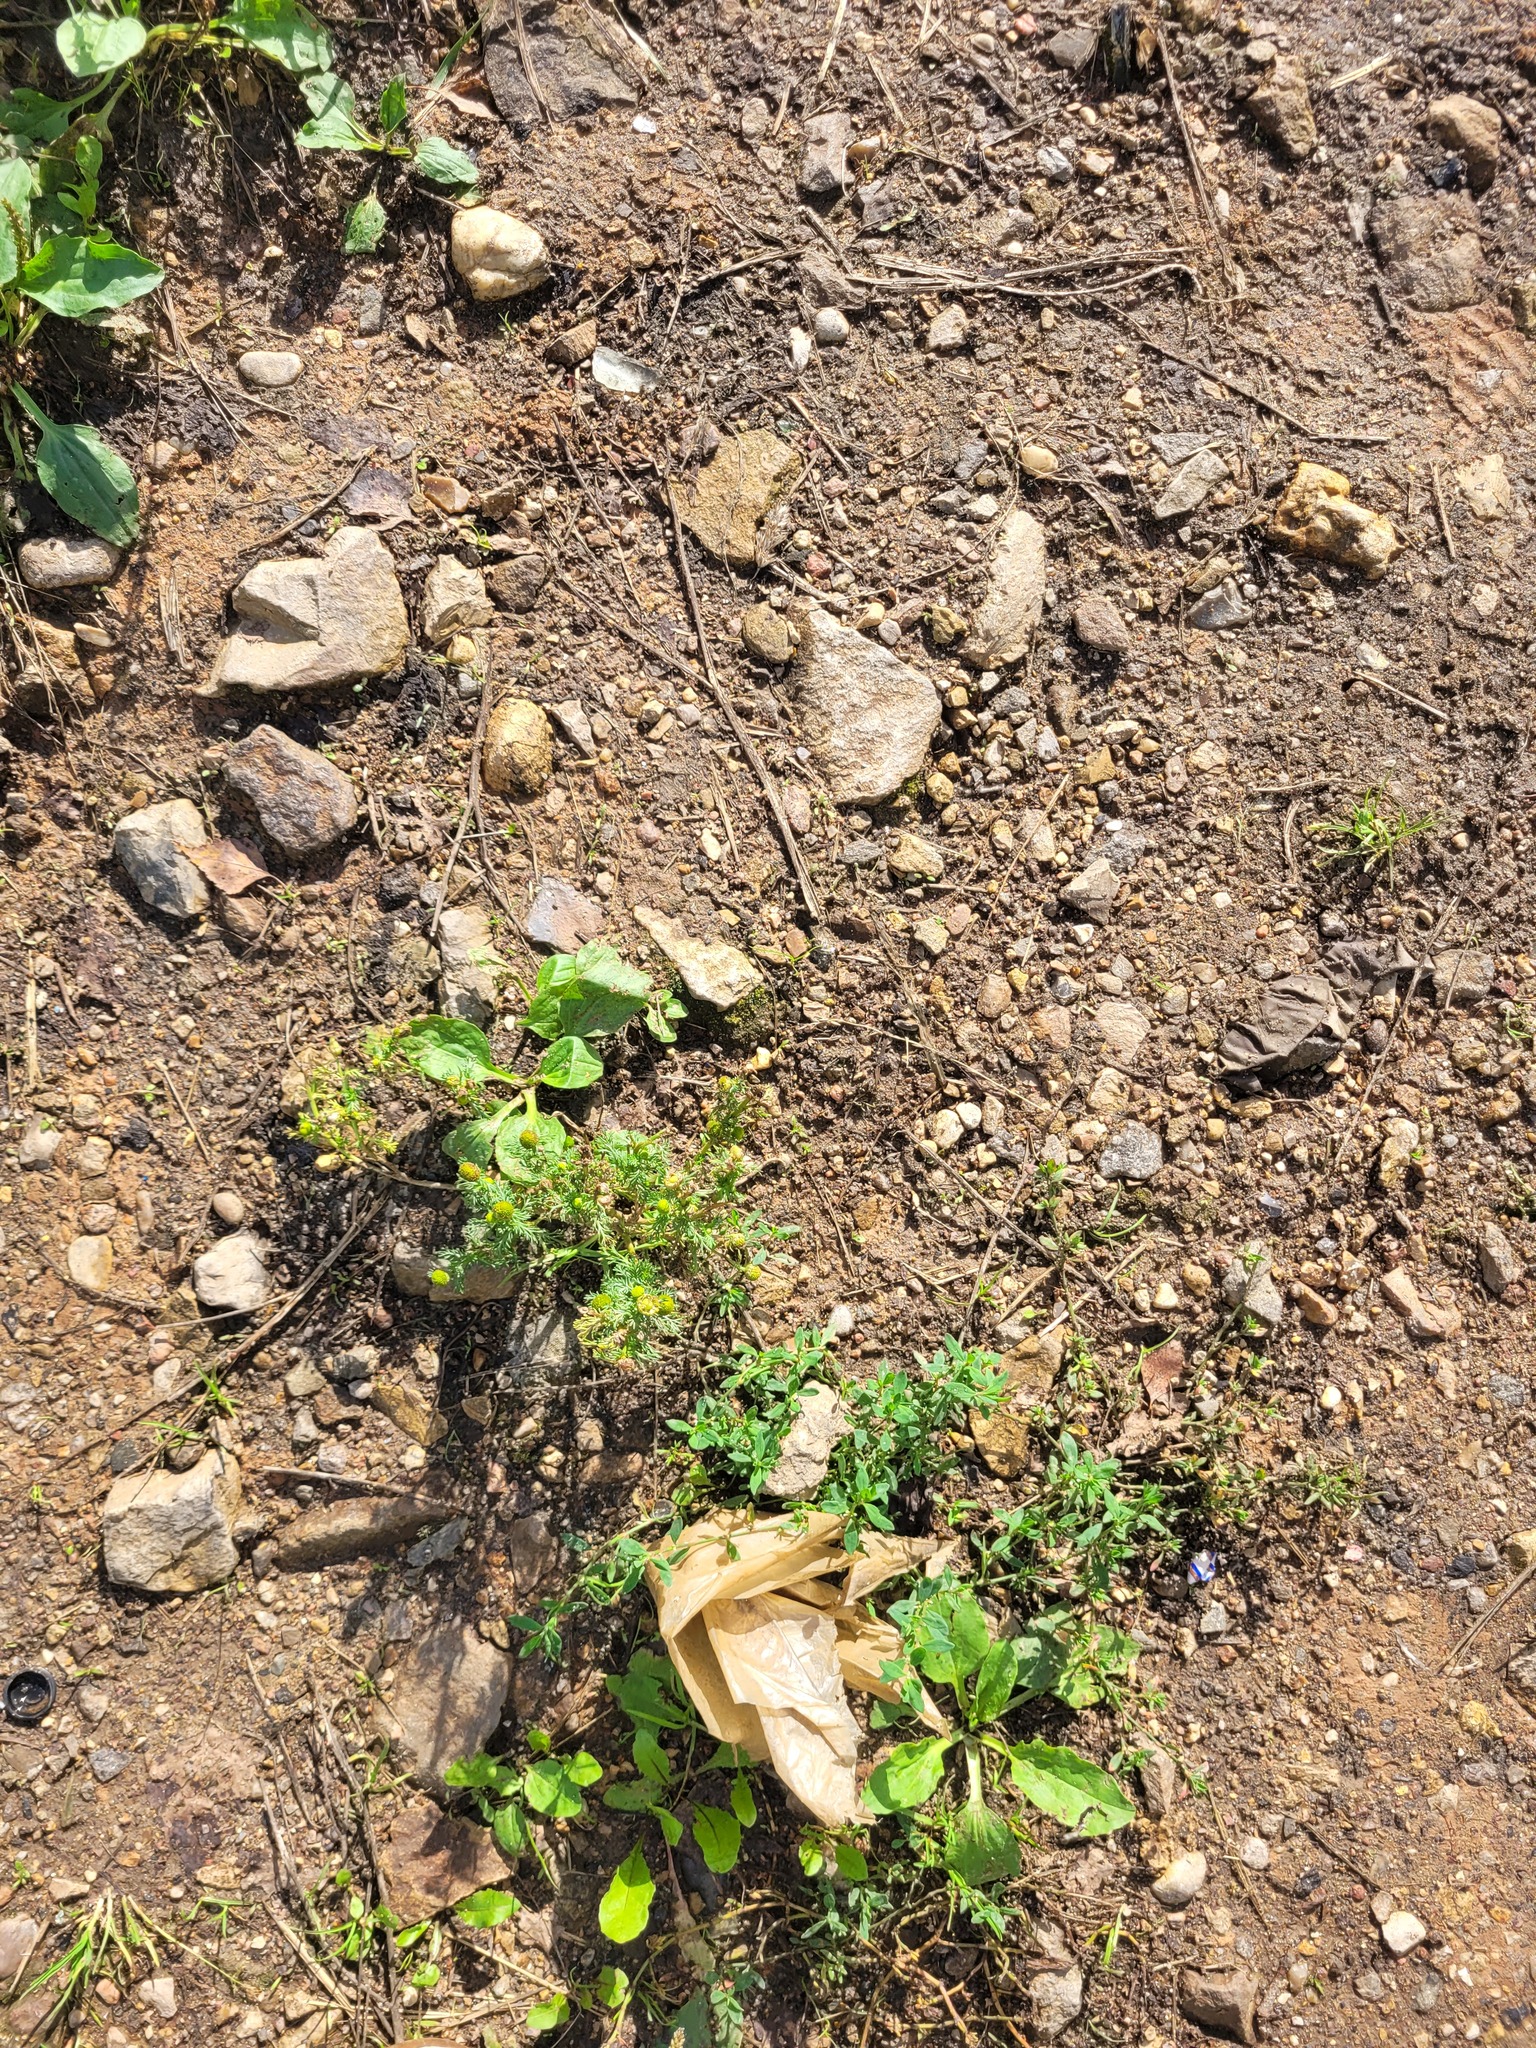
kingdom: Plantae
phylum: Tracheophyta
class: Magnoliopsida
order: Asterales
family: Asteraceae
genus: Matricaria
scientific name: Matricaria discoidea
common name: Disc mayweed
